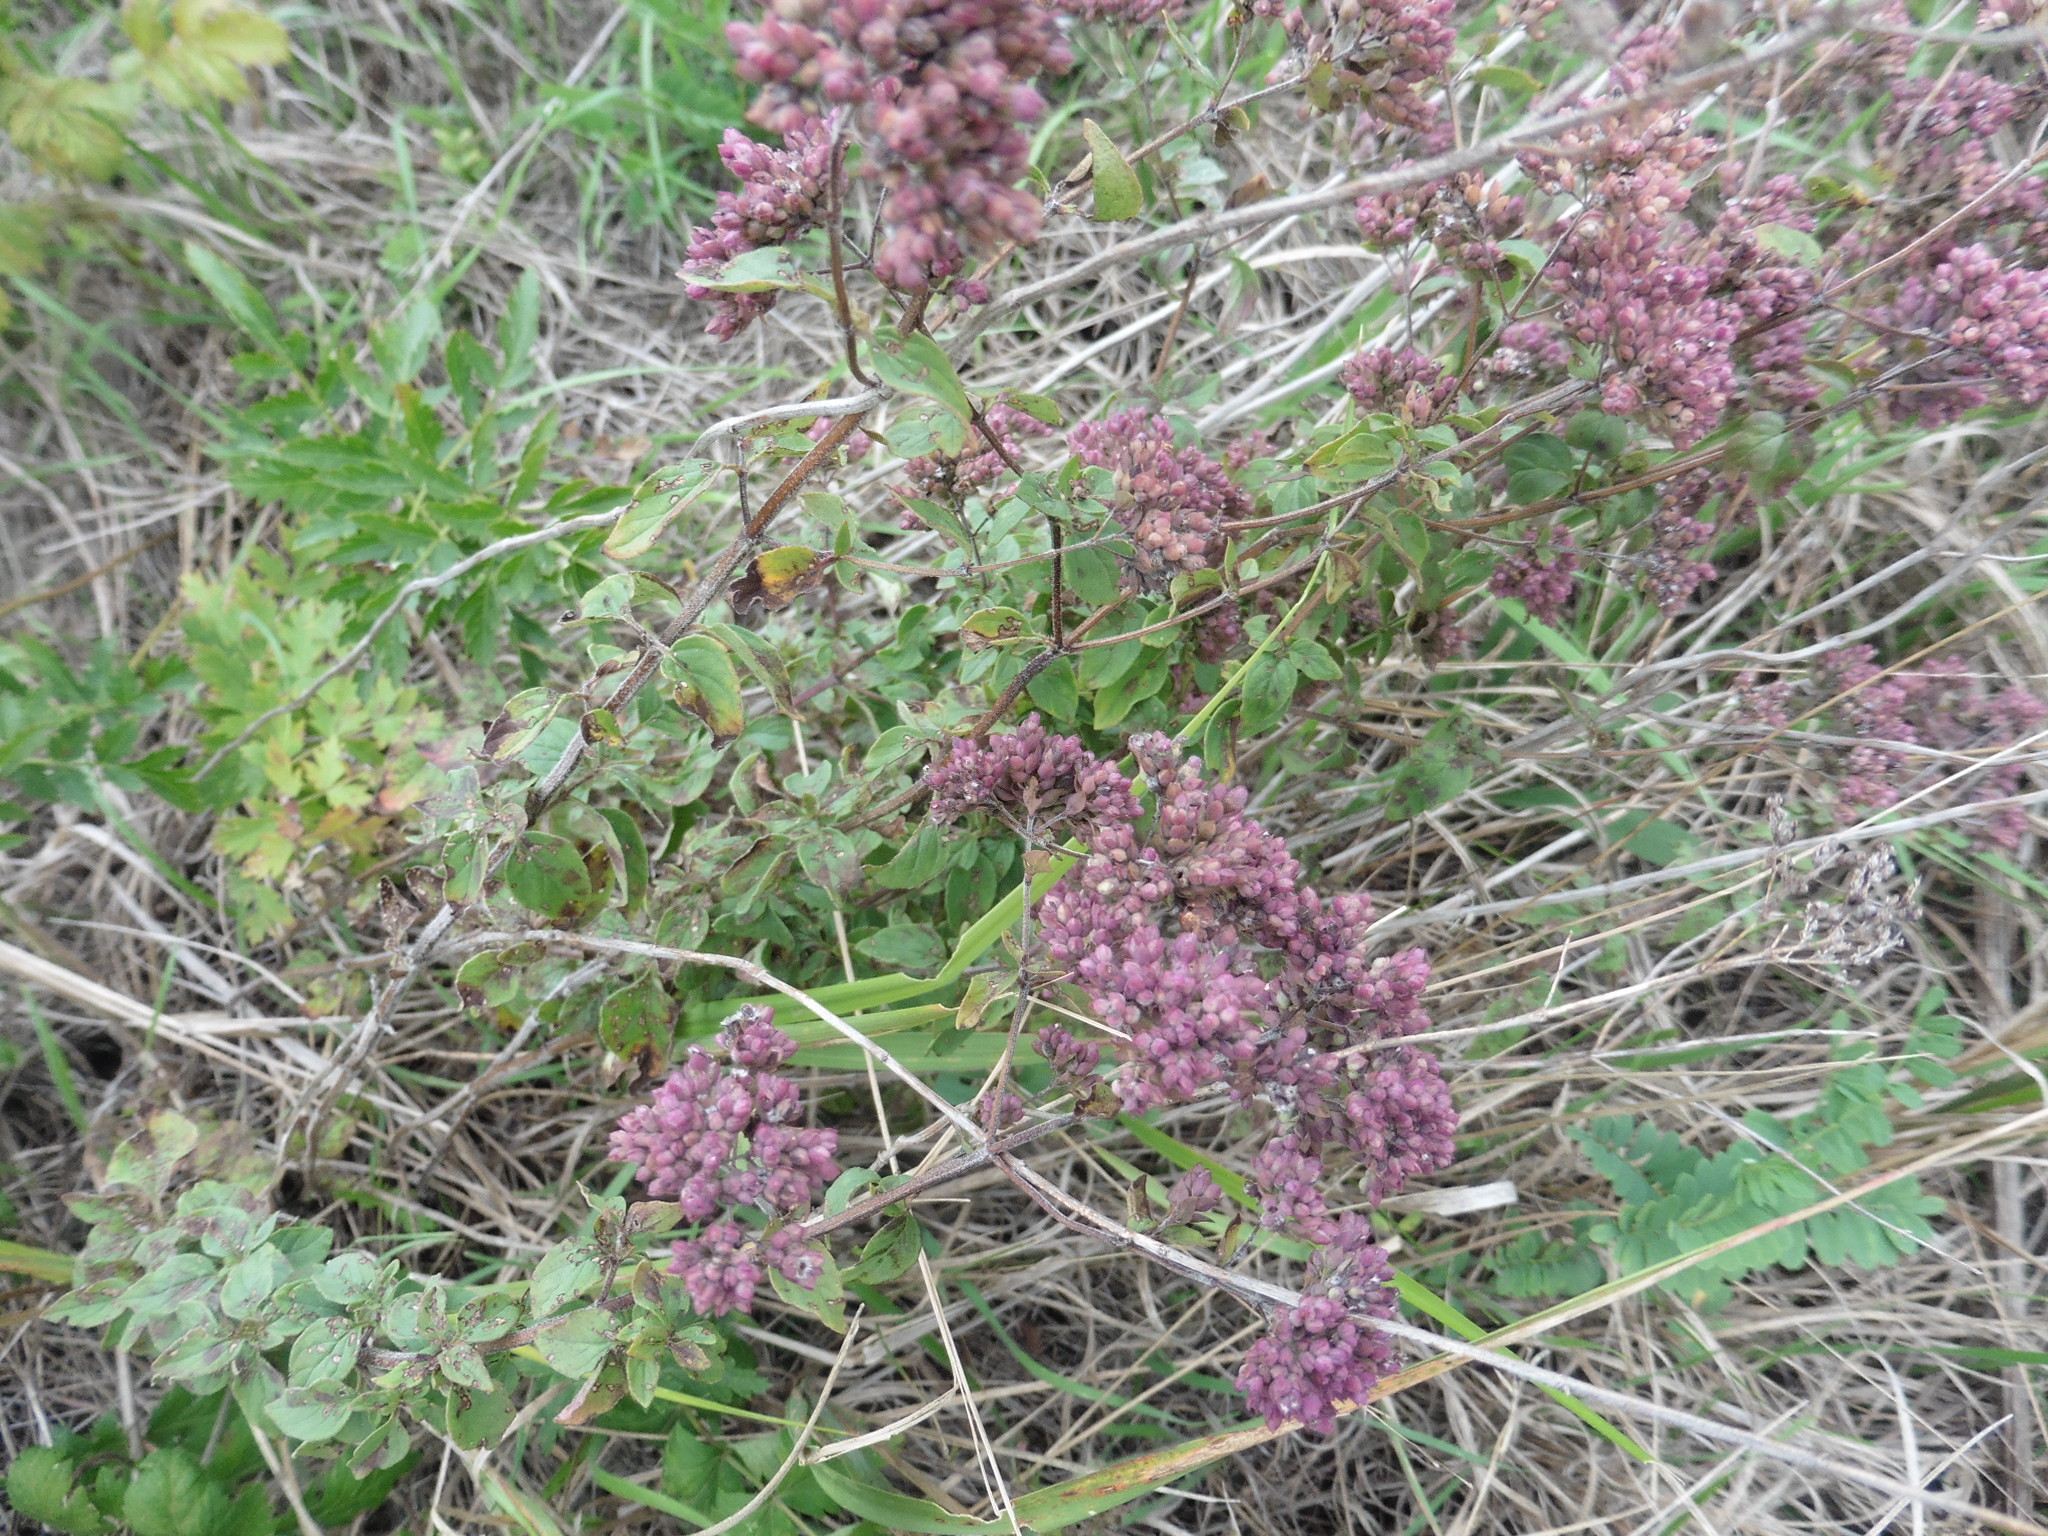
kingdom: Plantae
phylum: Tracheophyta
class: Magnoliopsida
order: Lamiales
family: Lamiaceae
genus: Origanum
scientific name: Origanum vulgare
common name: Wild marjoram
